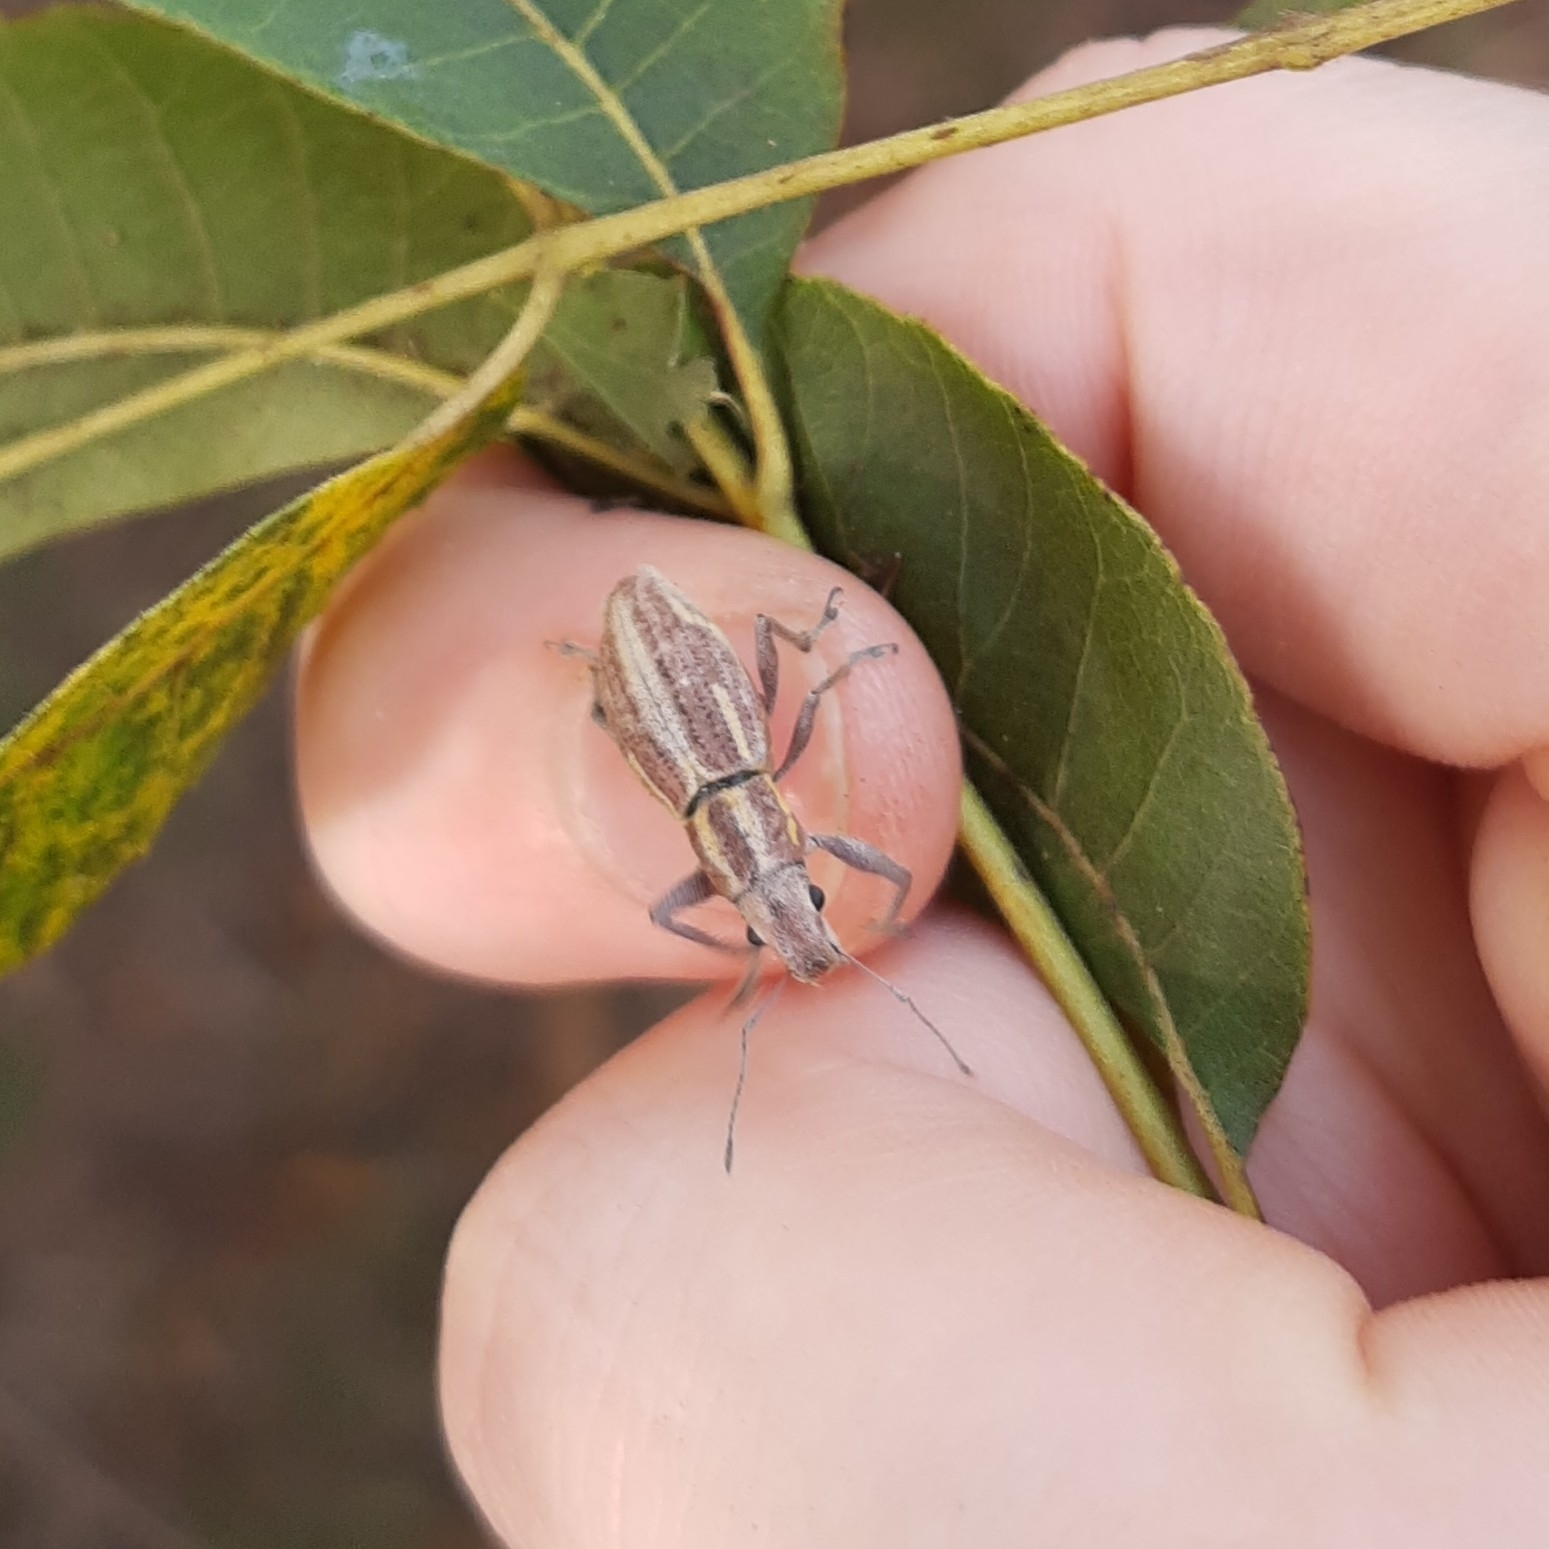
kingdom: Animalia
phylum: Arthropoda
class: Insecta
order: Coleoptera
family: Curculionidae
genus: Naupactus
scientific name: Naupactus xanthographus
